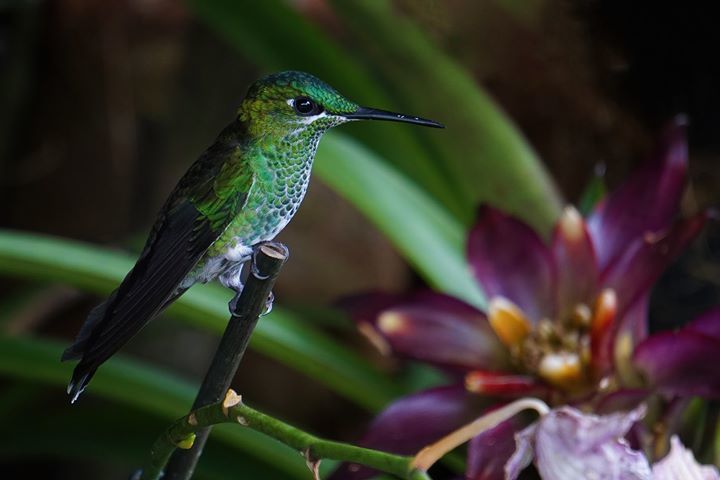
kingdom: Animalia
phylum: Chordata
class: Aves
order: Apodiformes
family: Trochilidae
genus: Heliodoxa
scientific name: Heliodoxa jacula
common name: Green-crowned brilliant
